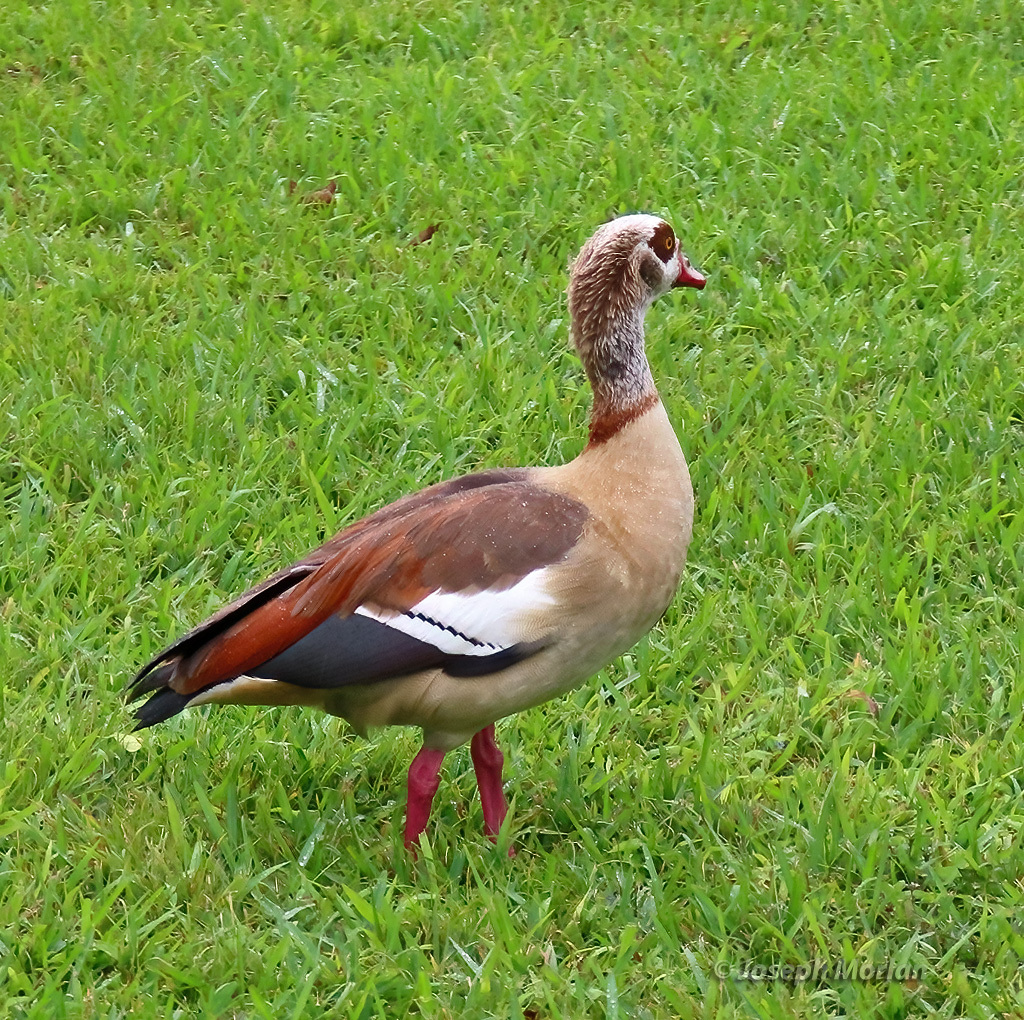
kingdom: Animalia
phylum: Chordata
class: Aves
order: Anseriformes
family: Anatidae
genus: Alopochen
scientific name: Alopochen aegyptiaca
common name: Egyptian goose
